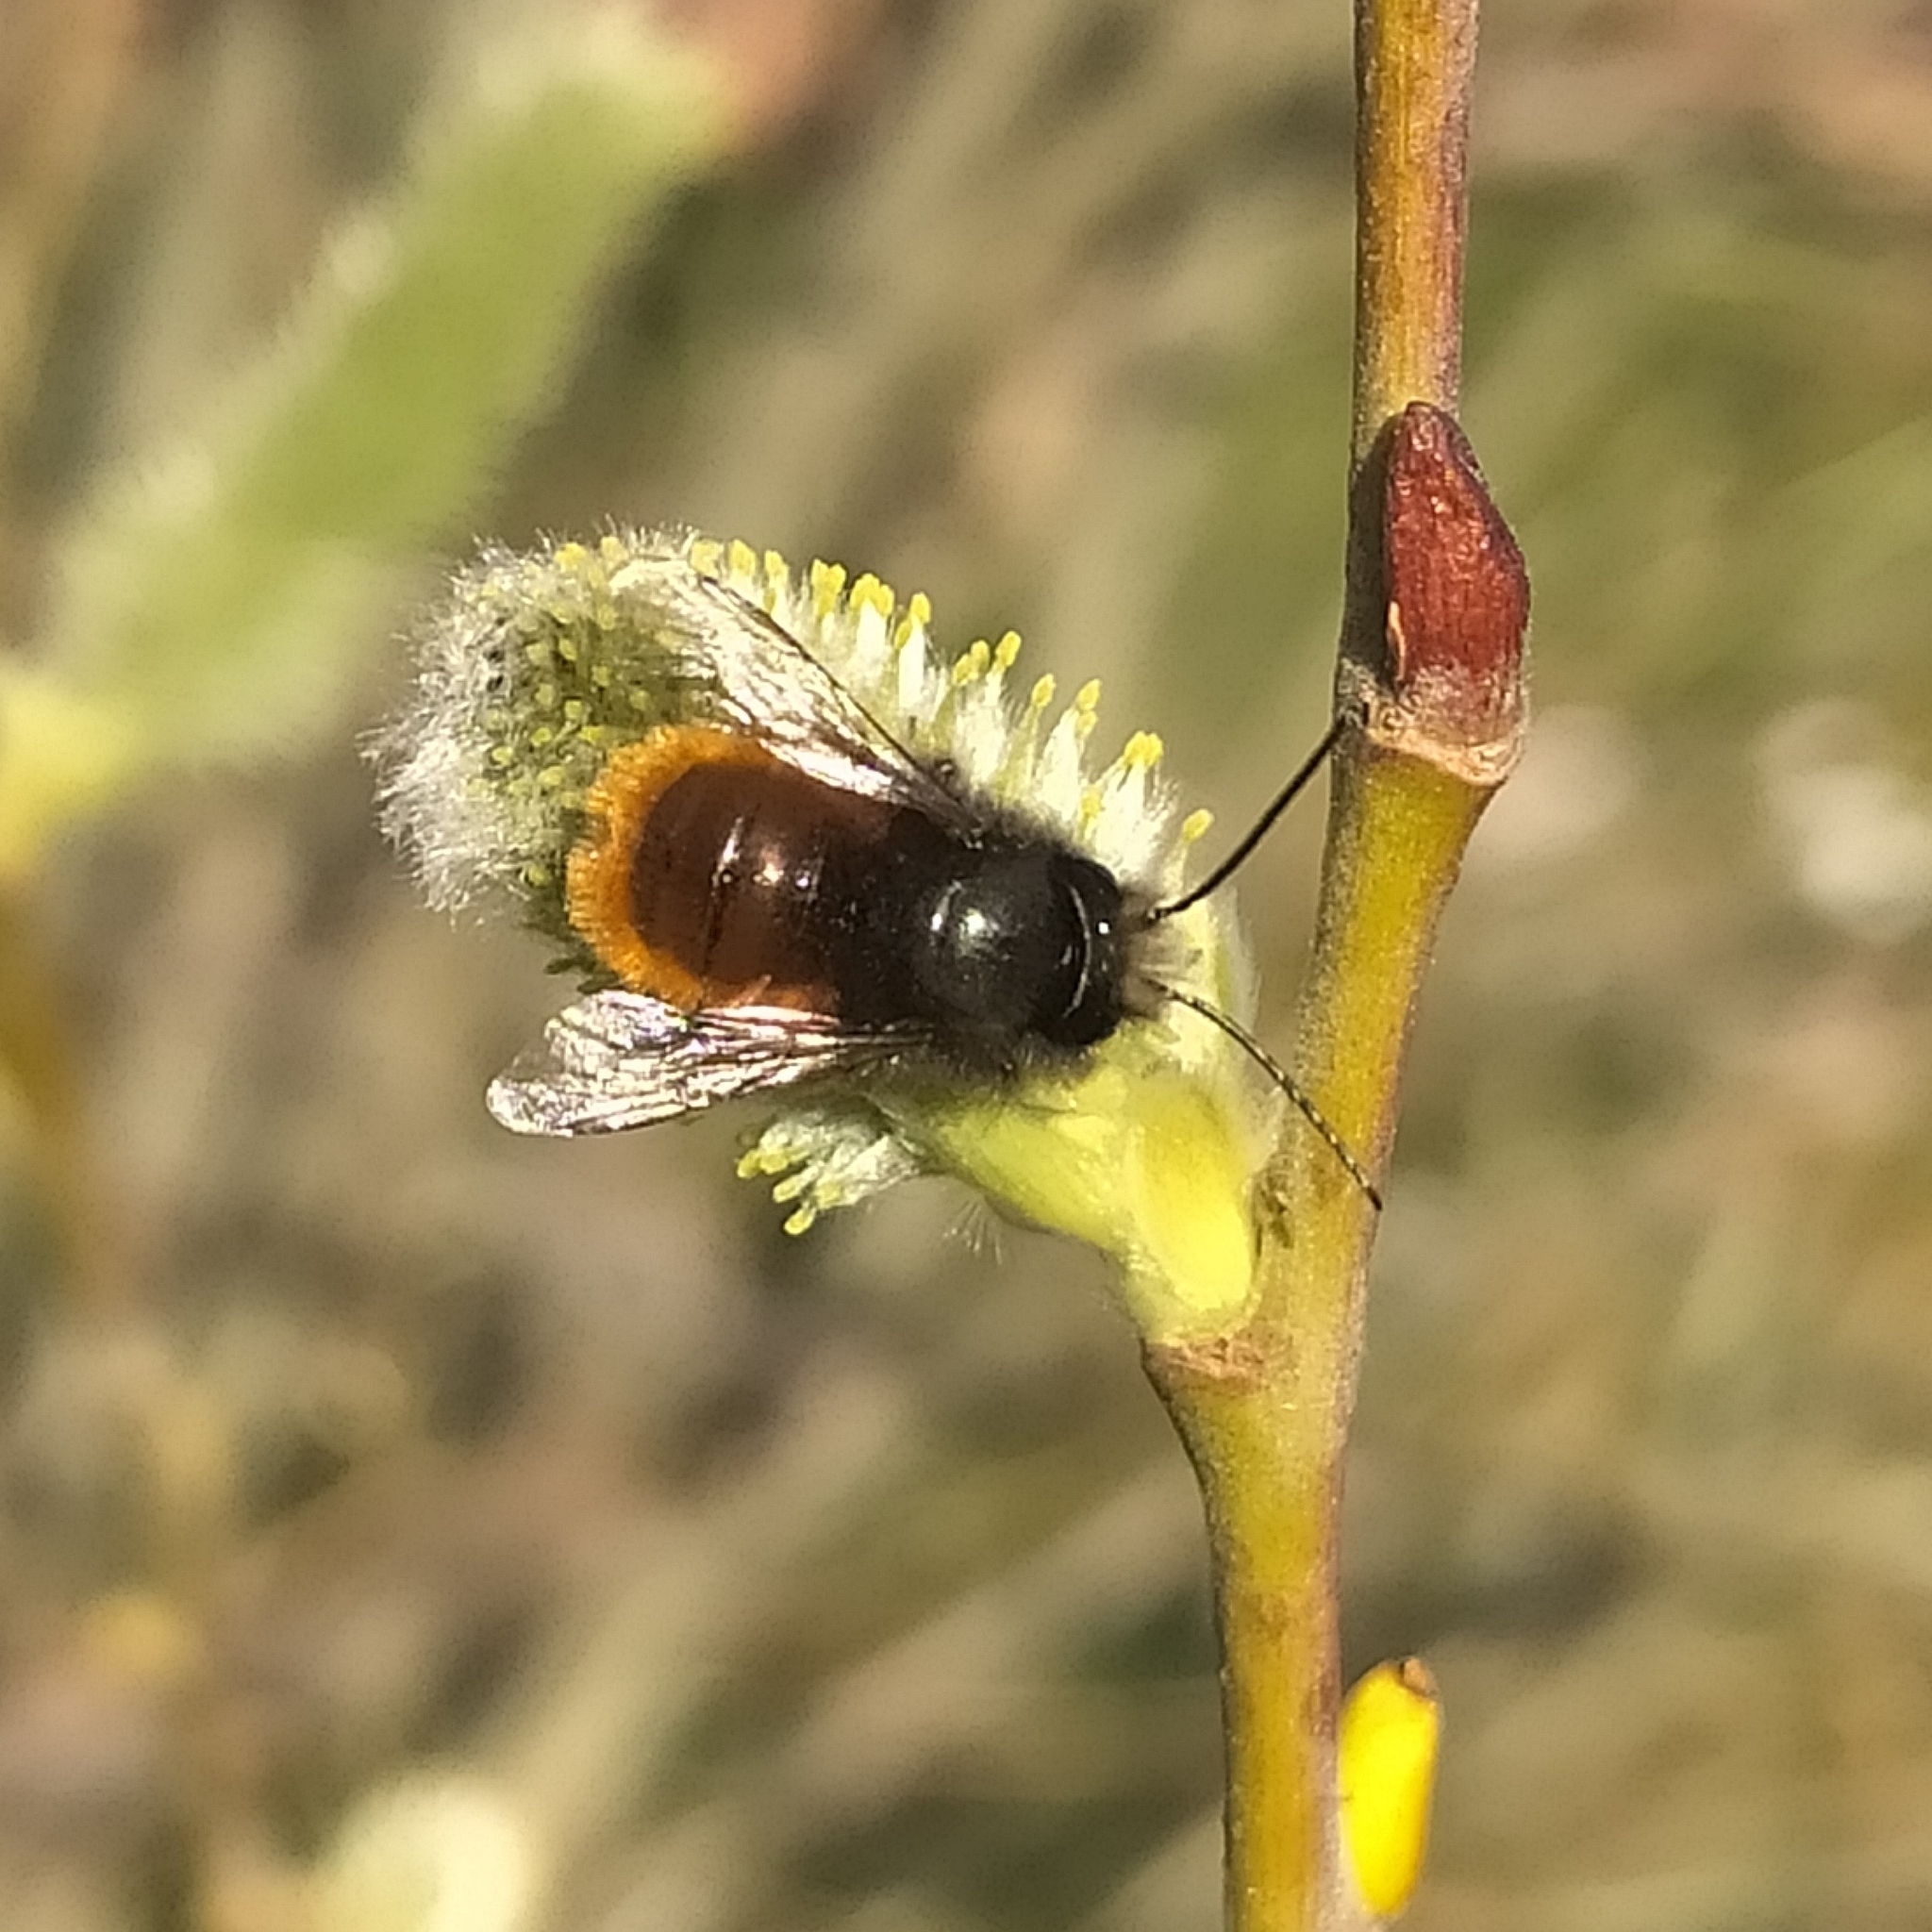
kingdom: Animalia
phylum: Arthropoda
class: Insecta
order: Hymenoptera
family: Megachilidae
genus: Osmia
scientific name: Osmia cornuta
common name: Mason bee
